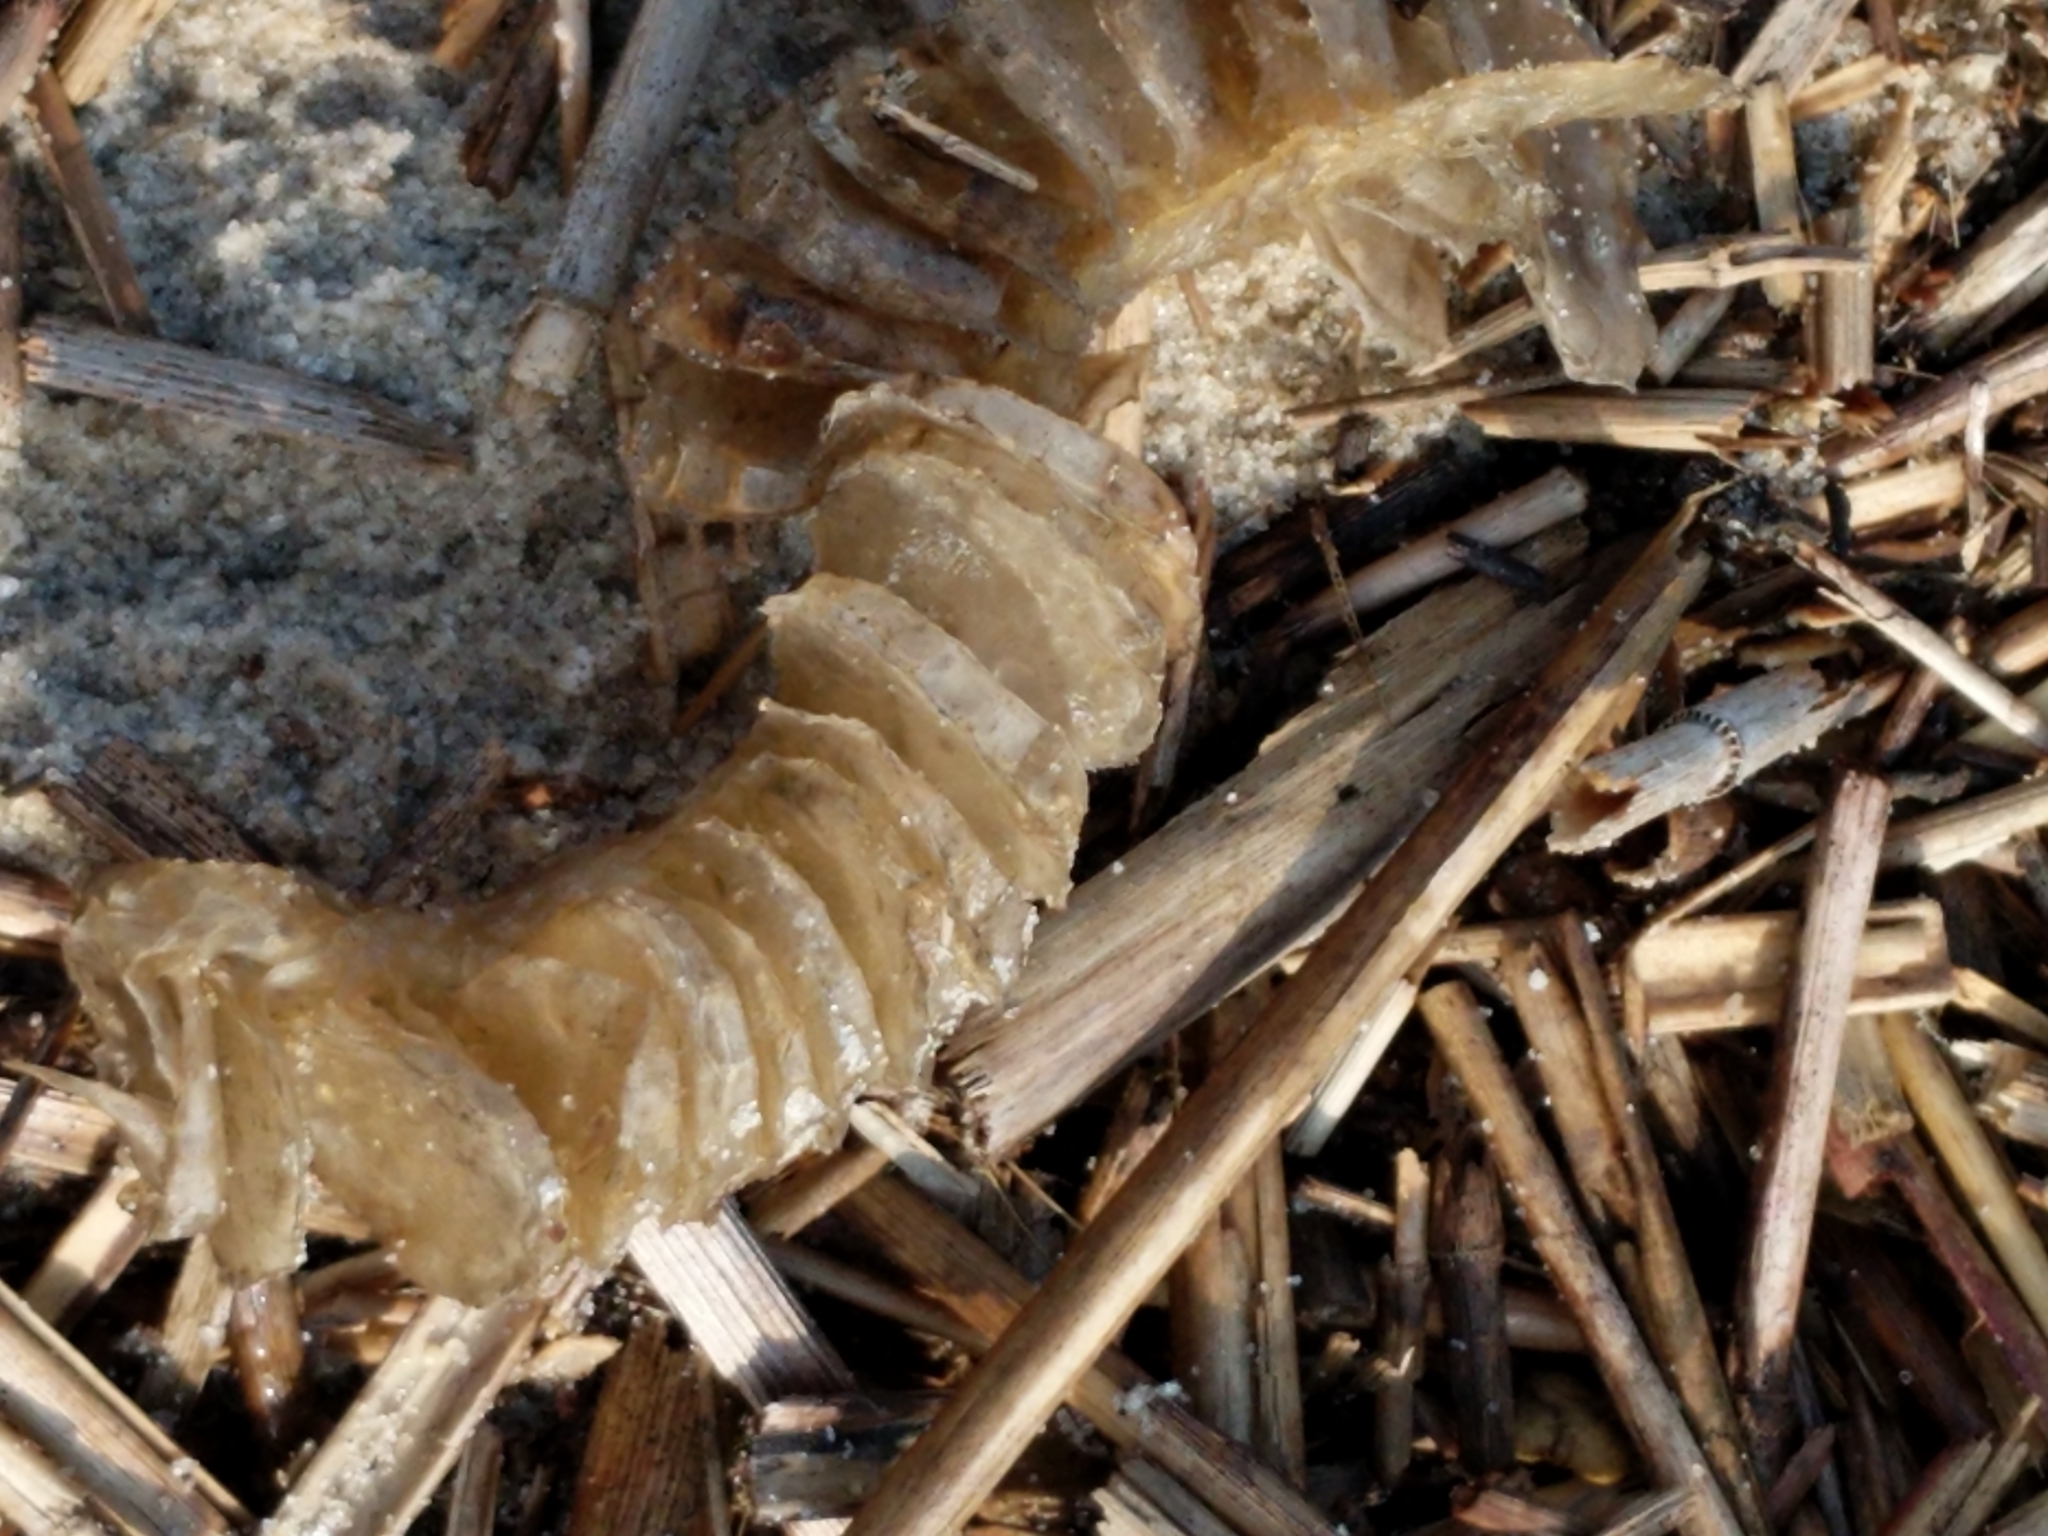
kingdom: Animalia
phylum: Mollusca
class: Gastropoda
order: Neogastropoda
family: Busyconidae
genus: Busycon
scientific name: Busycon carica
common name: Knobbed whelk
